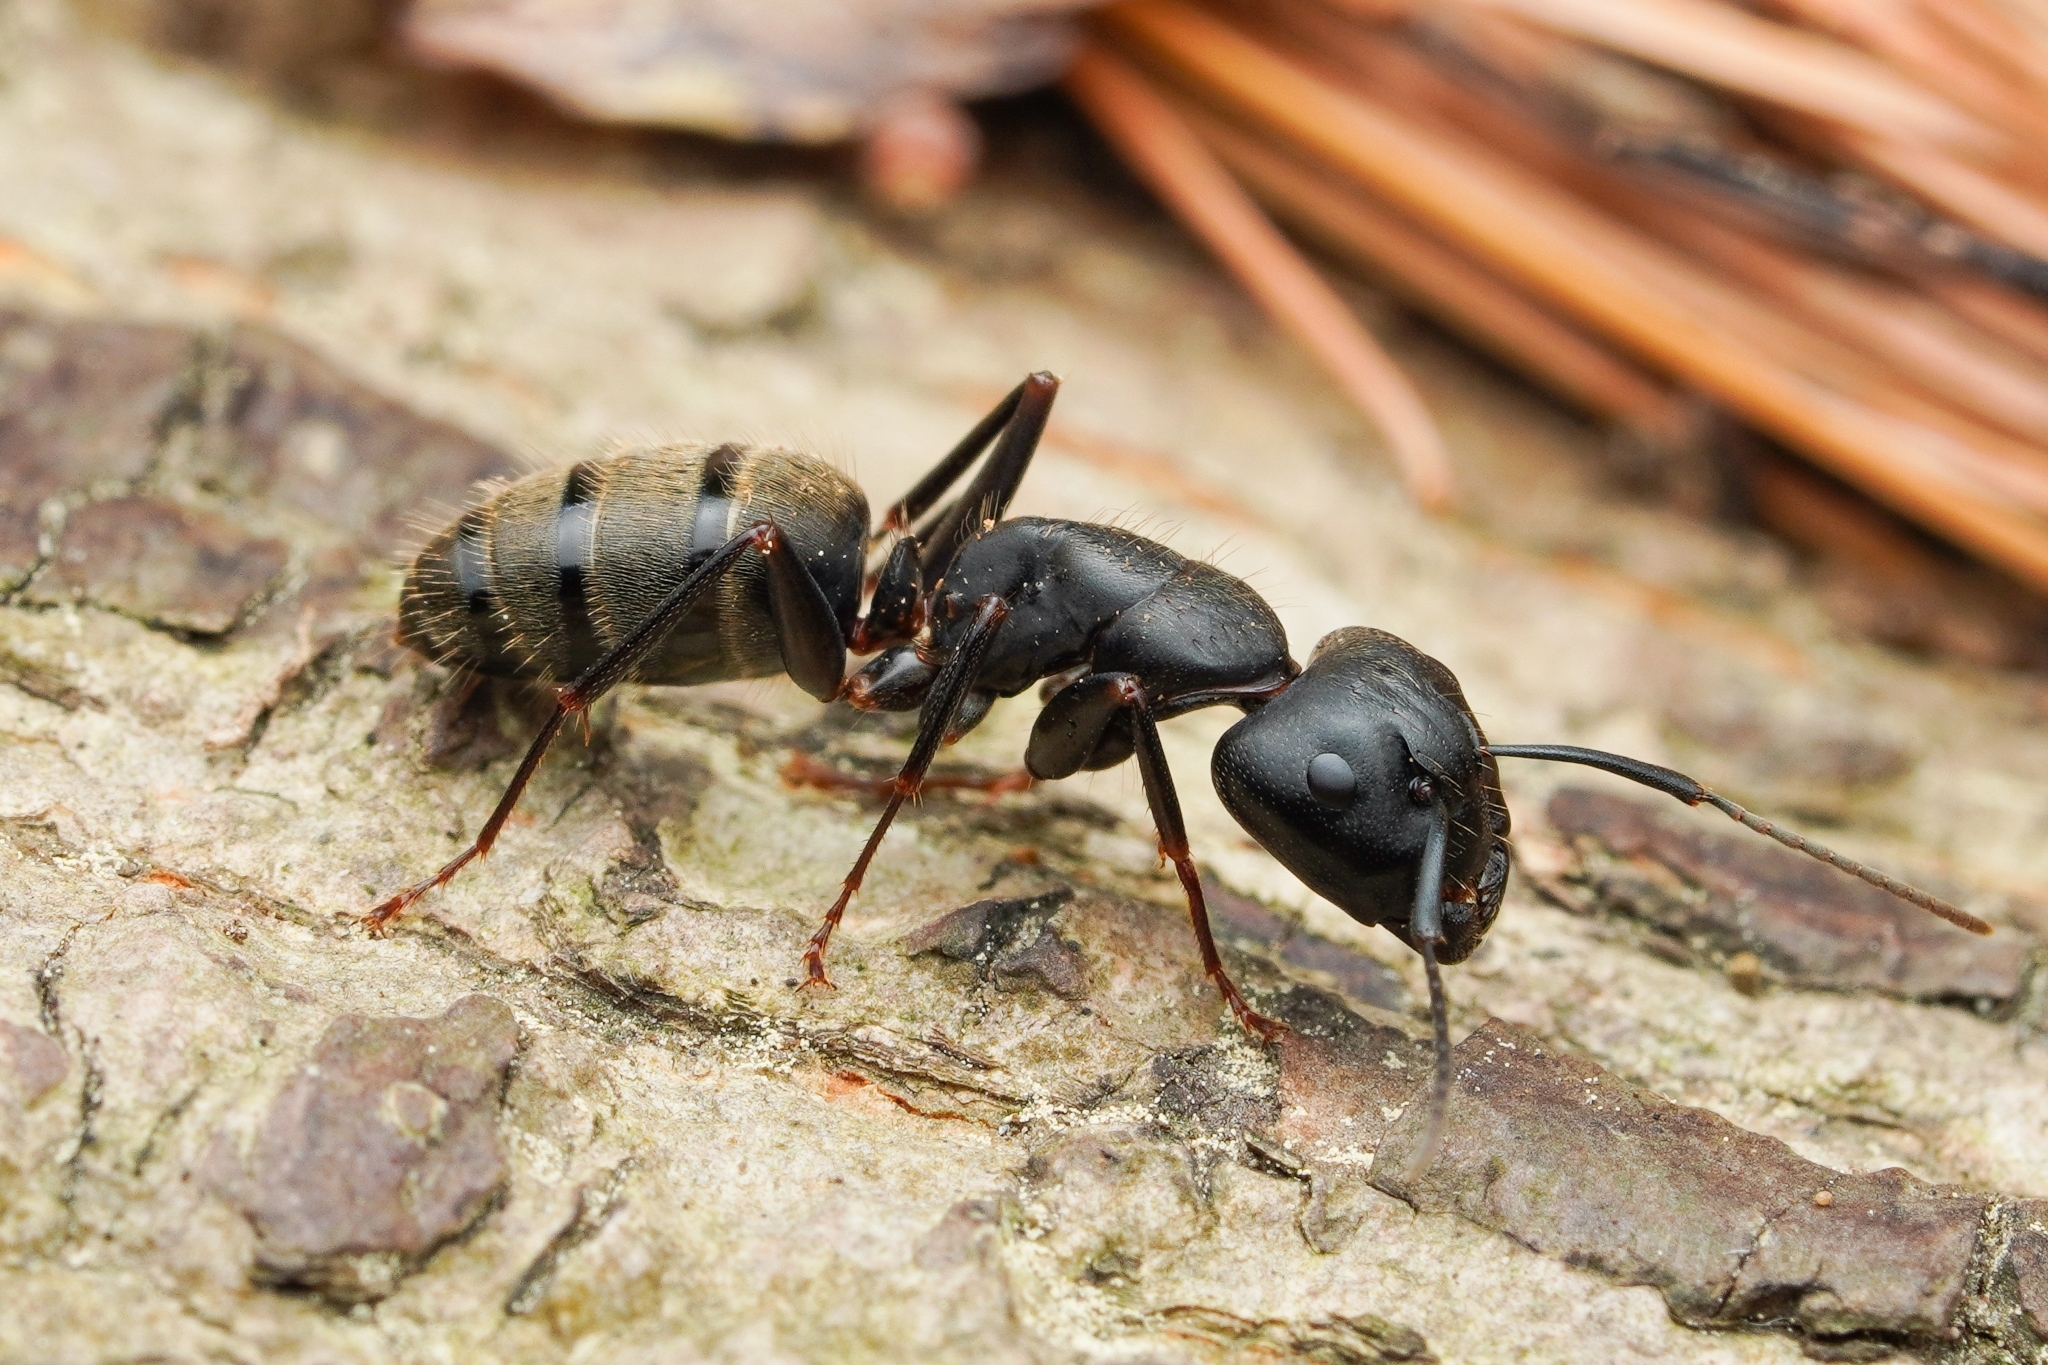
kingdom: Animalia
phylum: Arthropoda
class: Insecta
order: Hymenoptera
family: Formicidae
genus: Camponotus
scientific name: Camponotus pennsylvanicus
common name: Black carpenter ant
